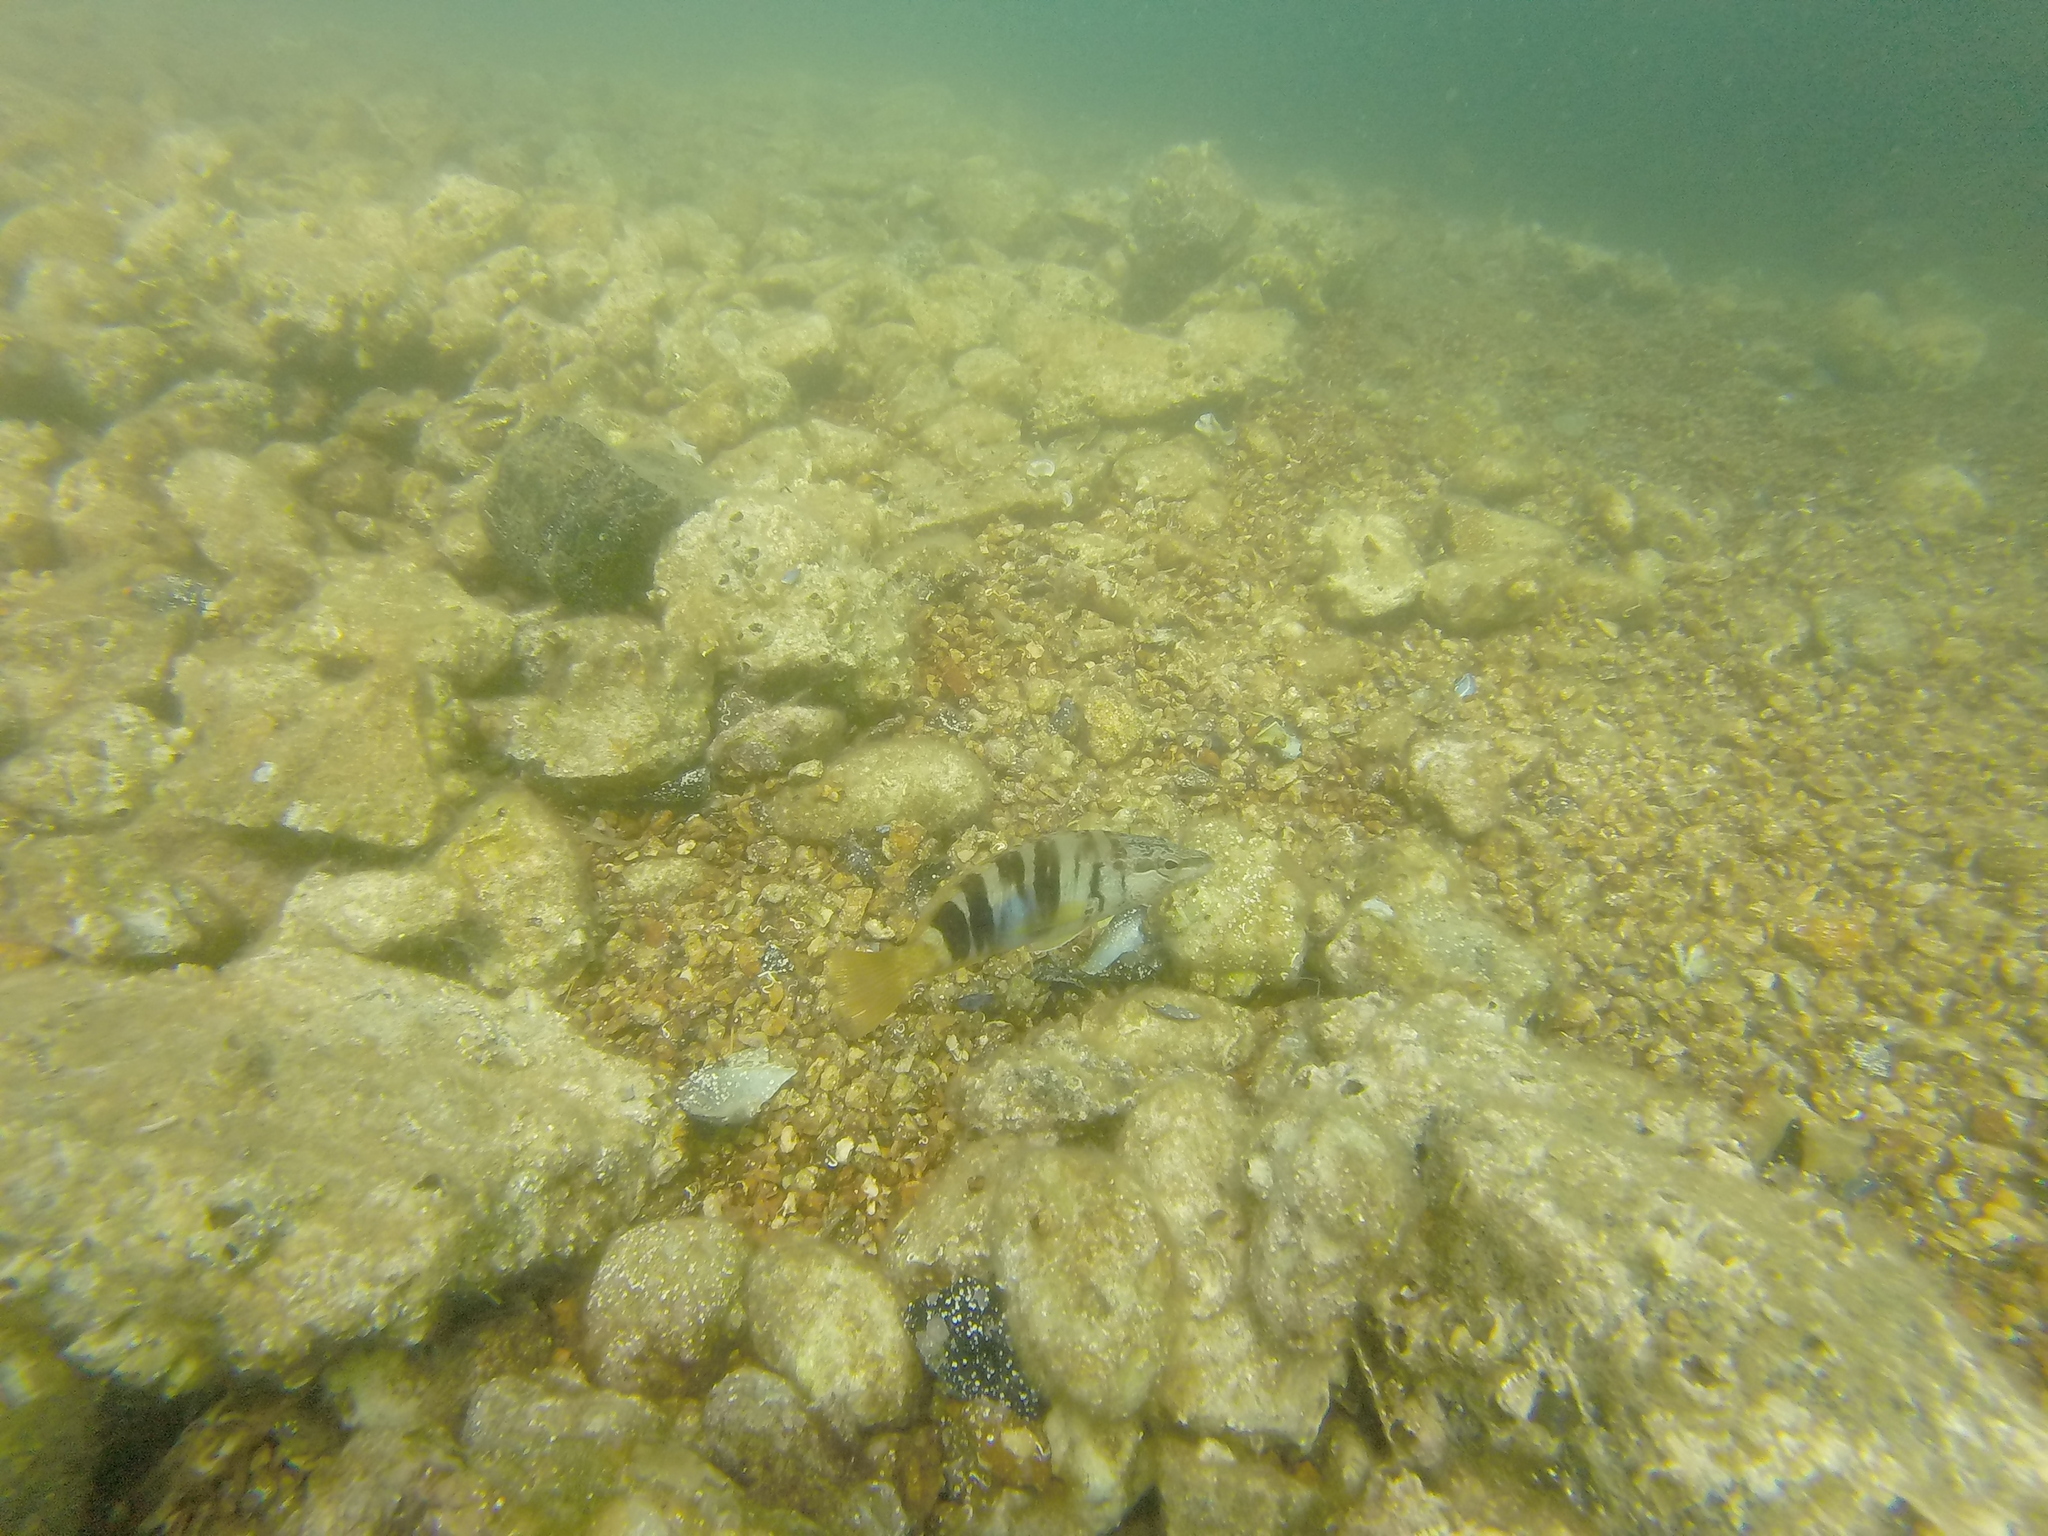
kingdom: Animalia
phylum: Chordata
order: Perciformes
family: Serranidae
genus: Serranus
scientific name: Serranus scriba
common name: Painted comber
